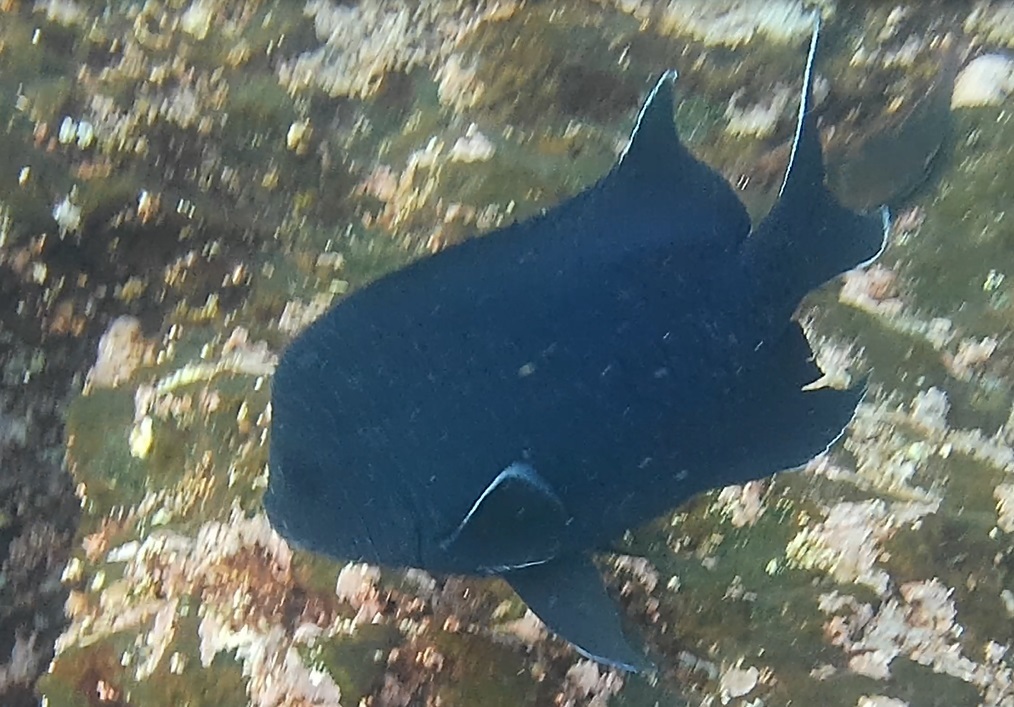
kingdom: Animalia
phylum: Chordata
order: Perciformes
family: Pomacentridae
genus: Microspathodon
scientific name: Microspathodon dorsalis
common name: Giant damselfish
